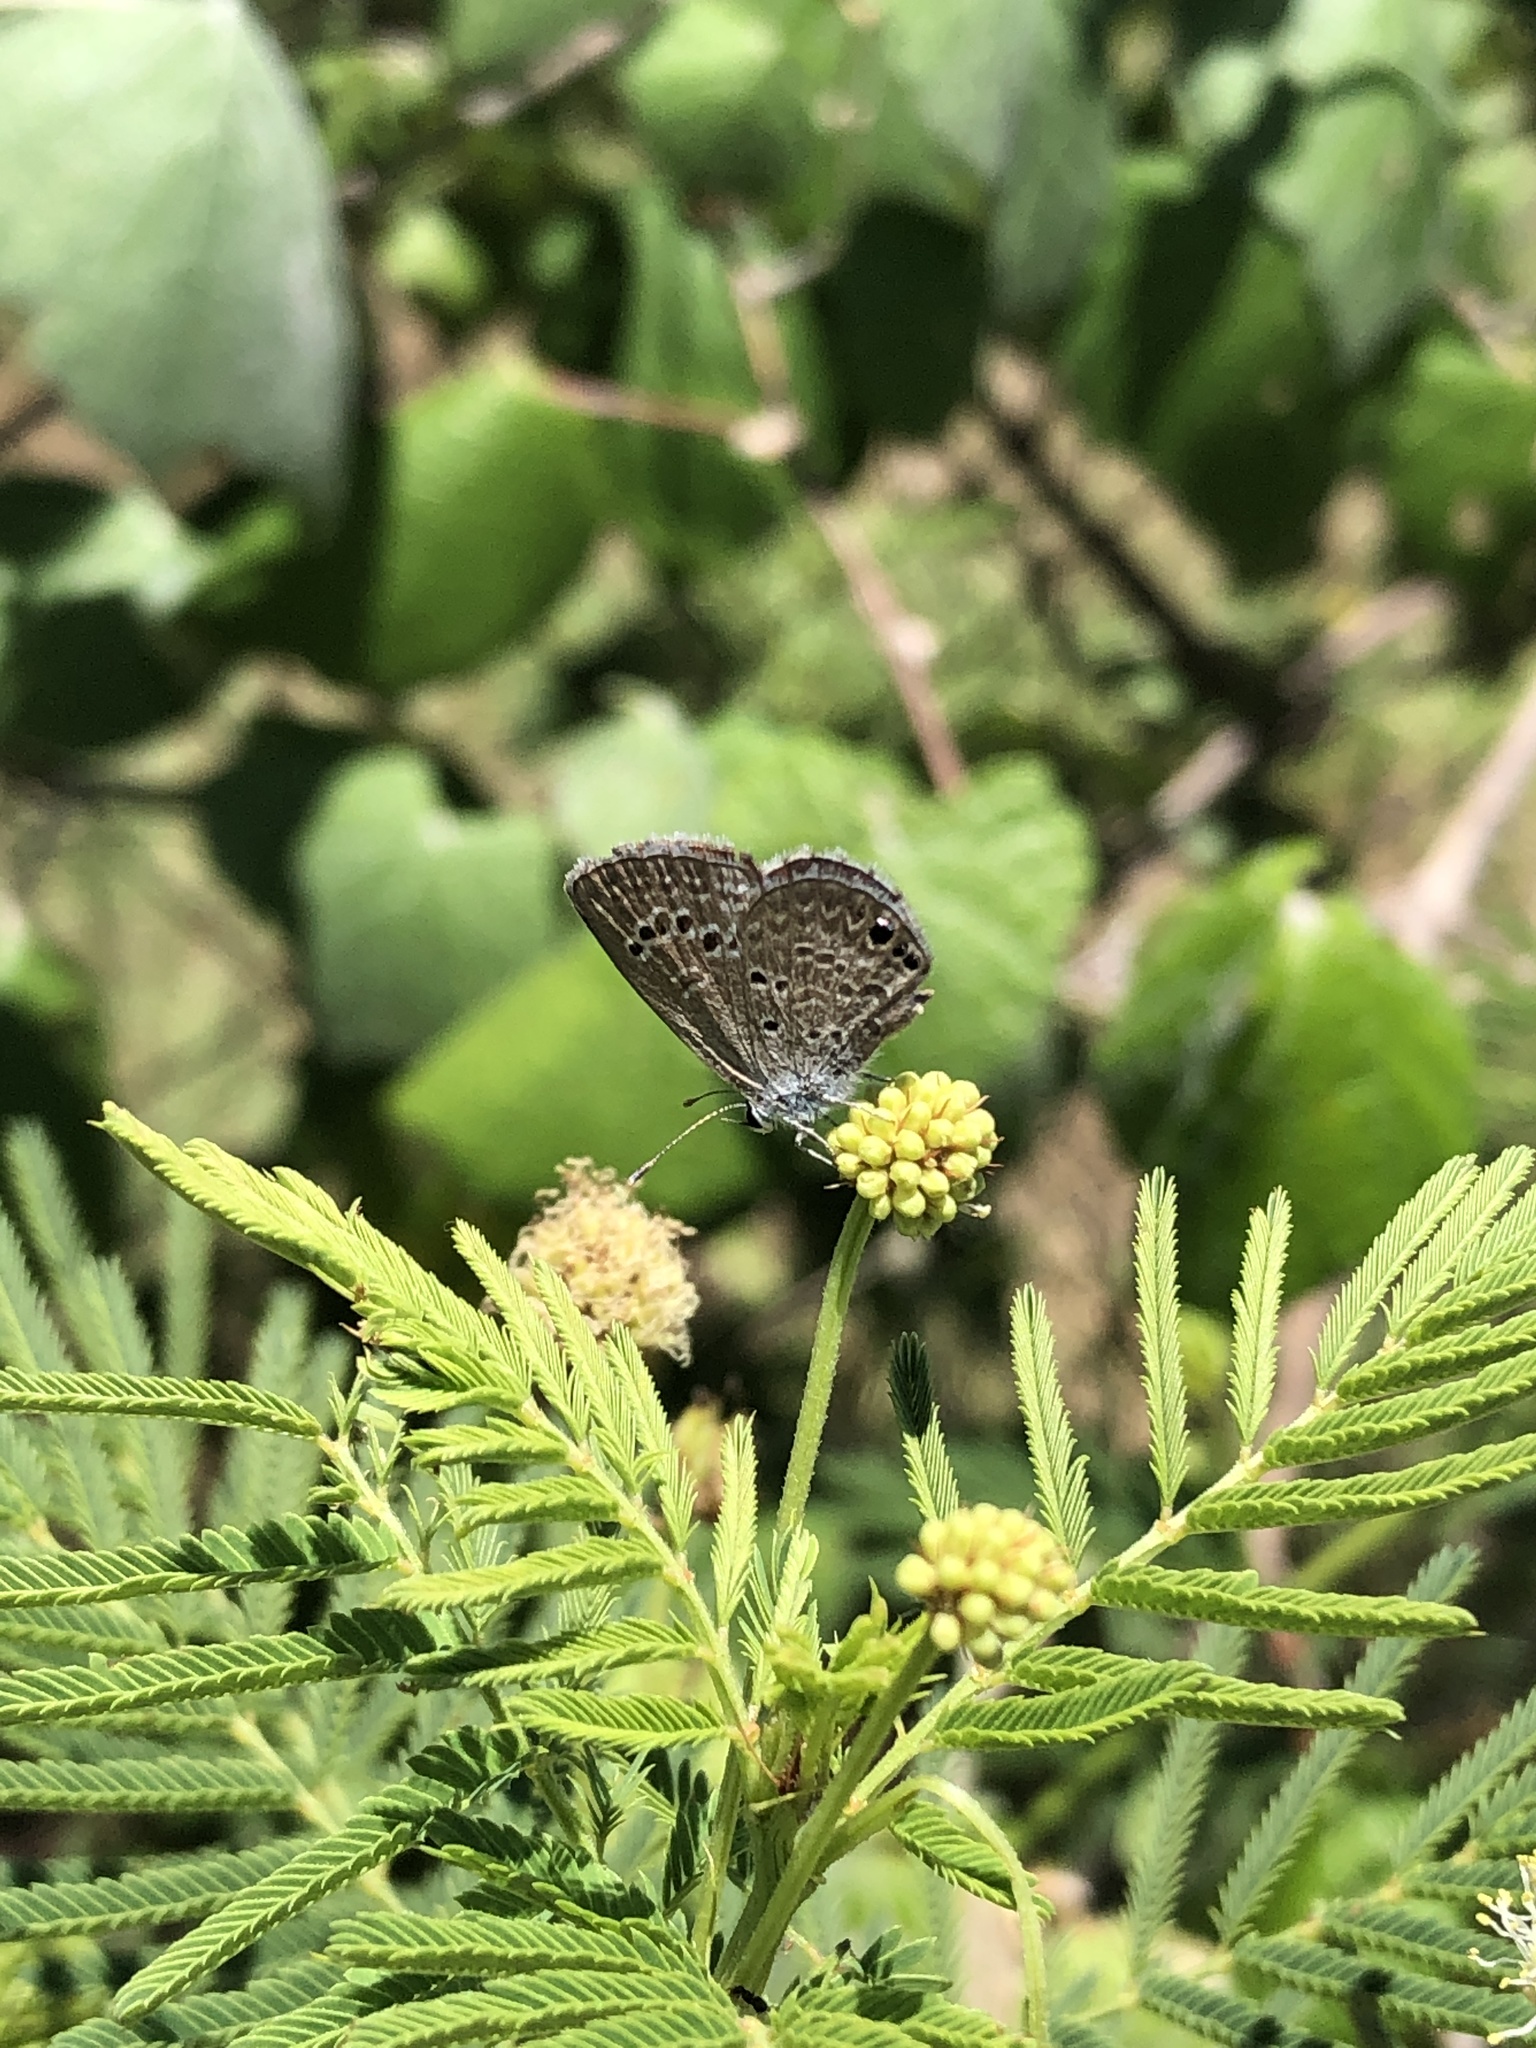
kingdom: Animalia
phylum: Arthropoda
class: Insecta
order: Lepidoptera
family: Lycaenidae
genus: Echinargus
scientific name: Echinargus isola
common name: Reakirt's blue
